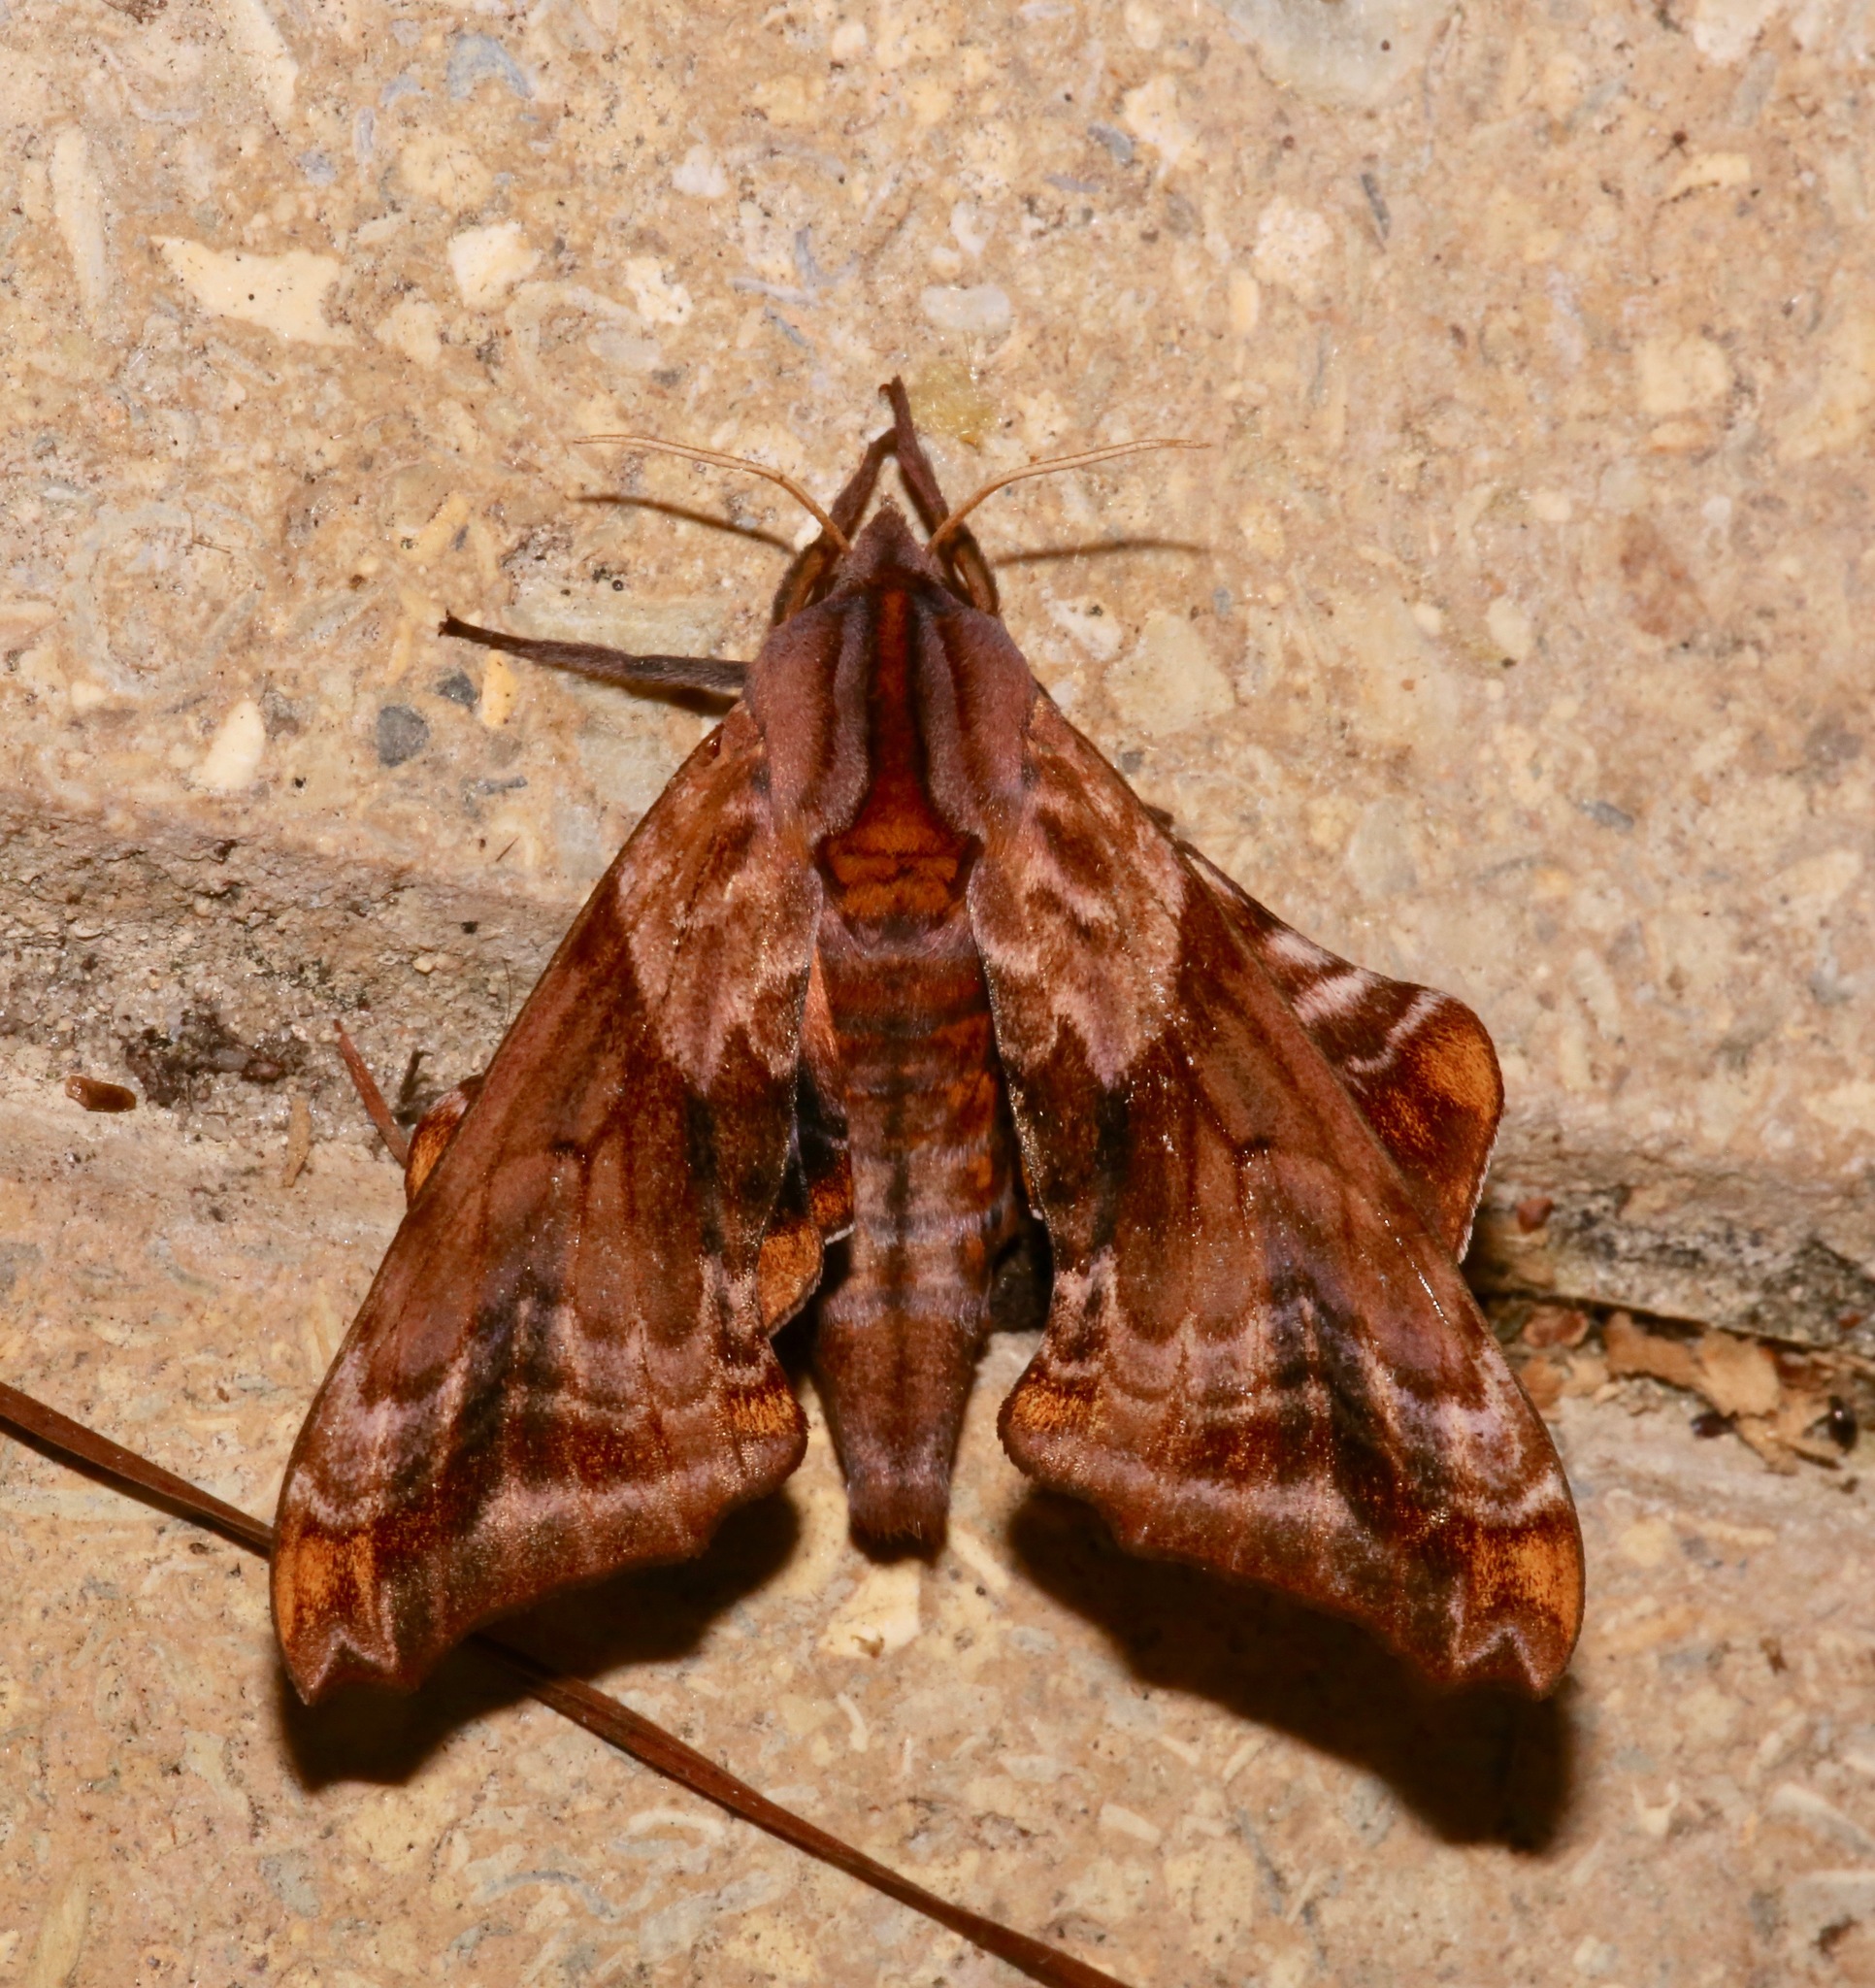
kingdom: Animalia
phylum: Arthropoda
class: Insecta
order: Lepidoptera
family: Sphingidae
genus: Paonias
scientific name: Paonias myops
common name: Small-eyed sphinx
